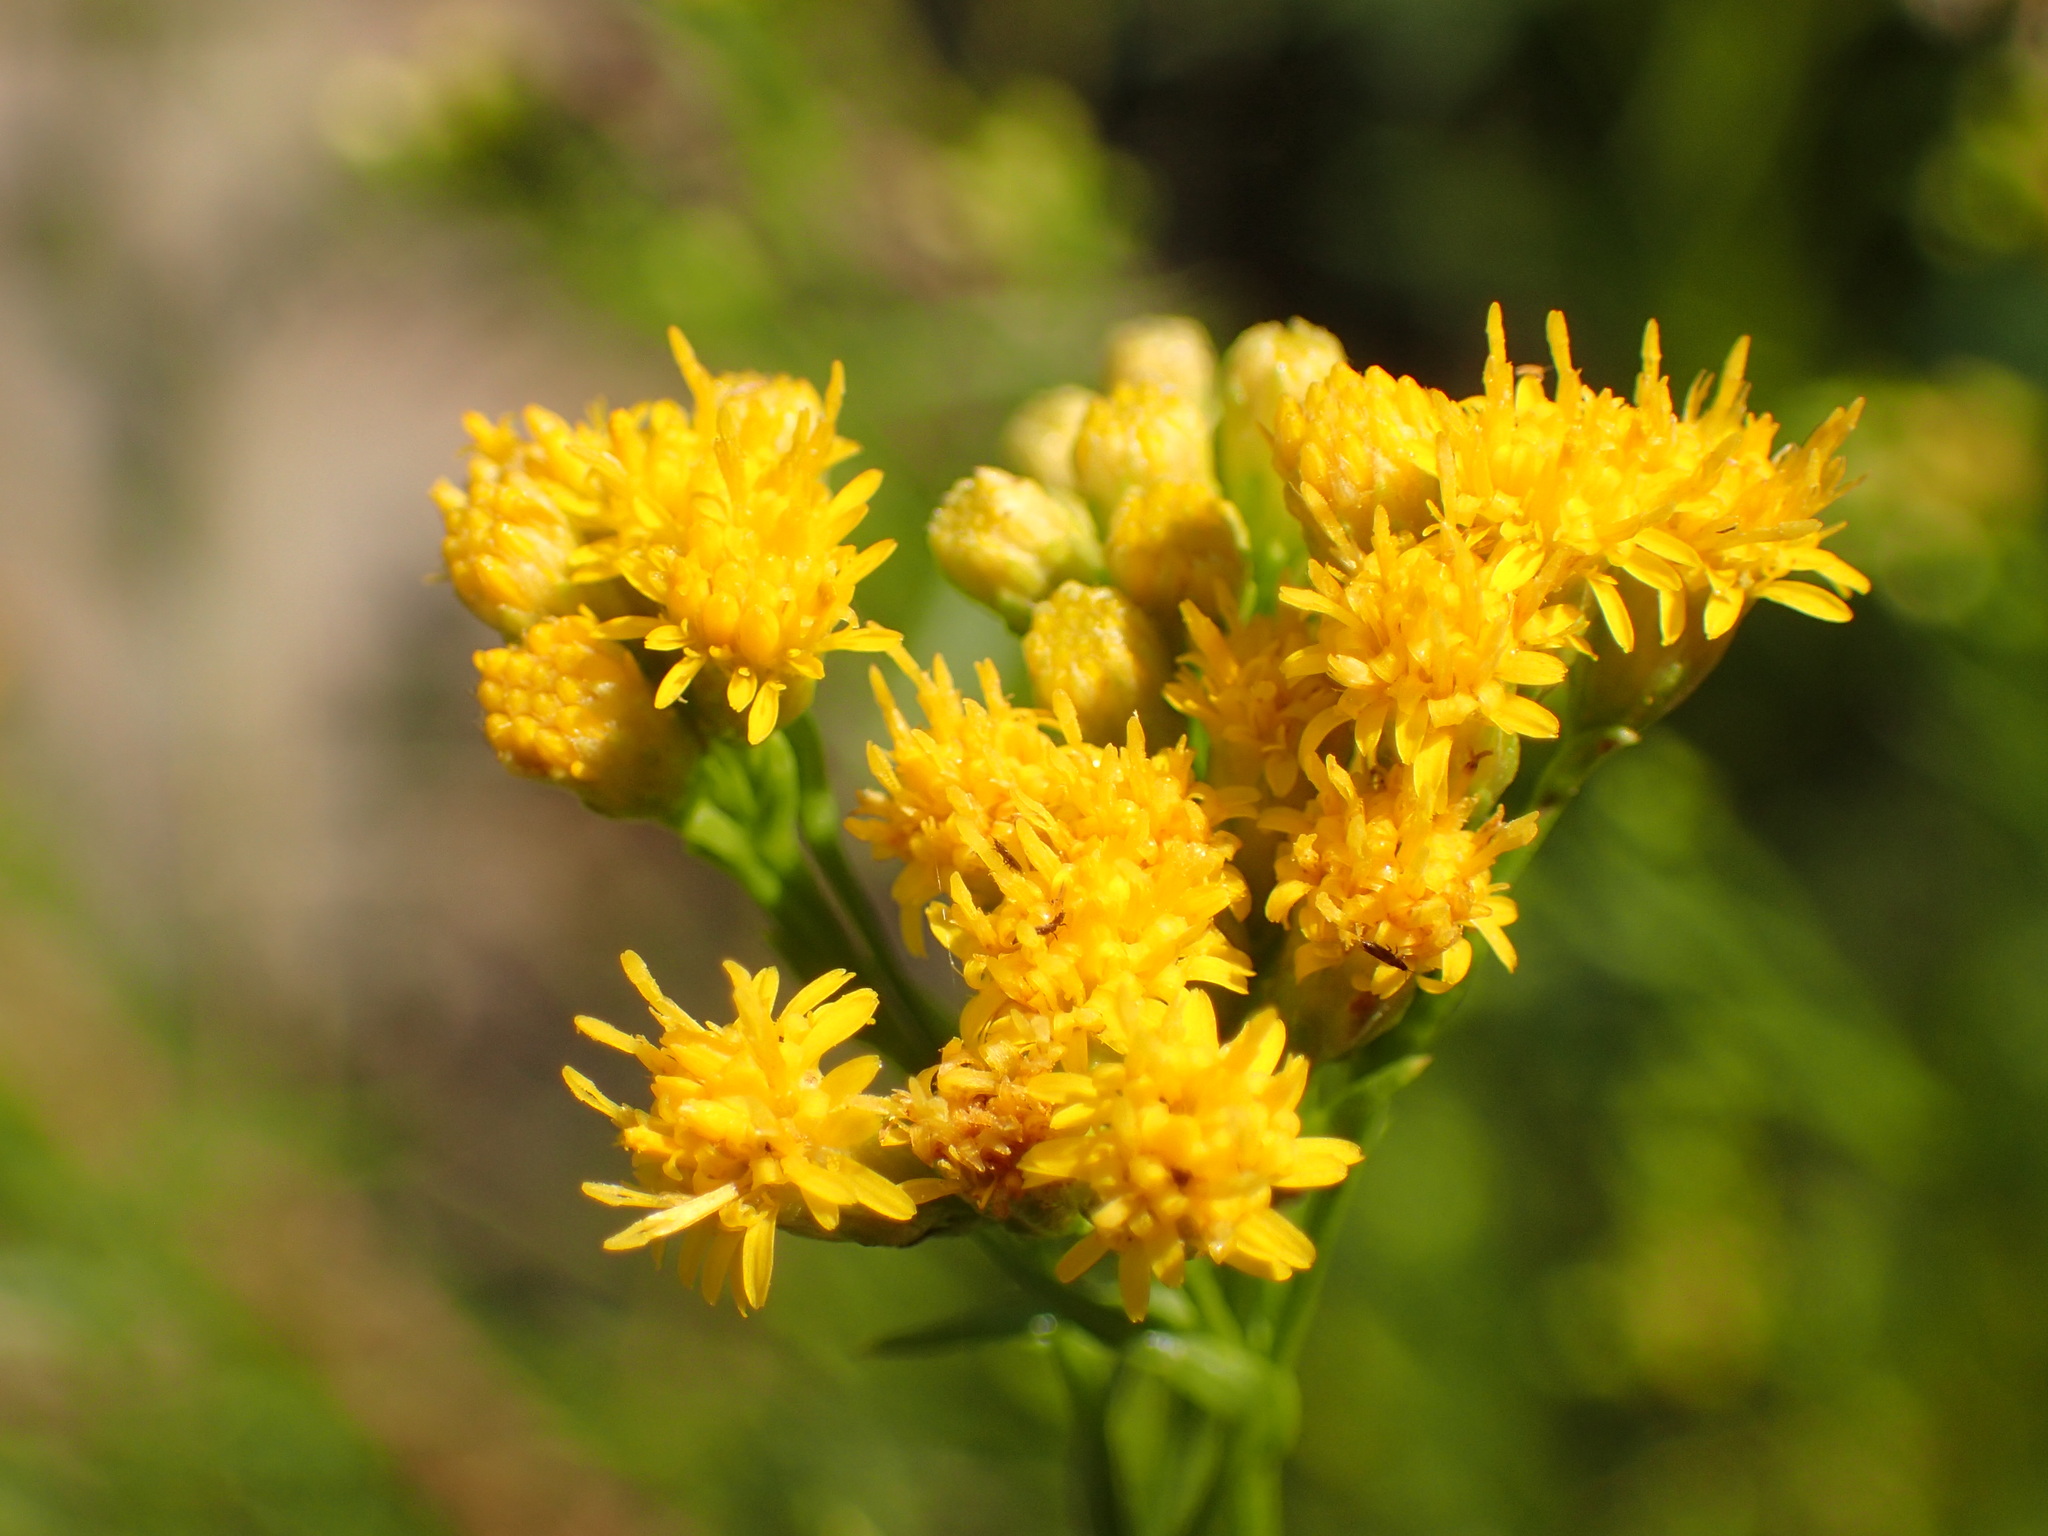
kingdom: Plantae
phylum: Tracheophyta
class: Magnoliopsida
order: Asterales
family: Asteraceae
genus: Euthamia
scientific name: Euthamia occidentalis
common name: Western goldentop
